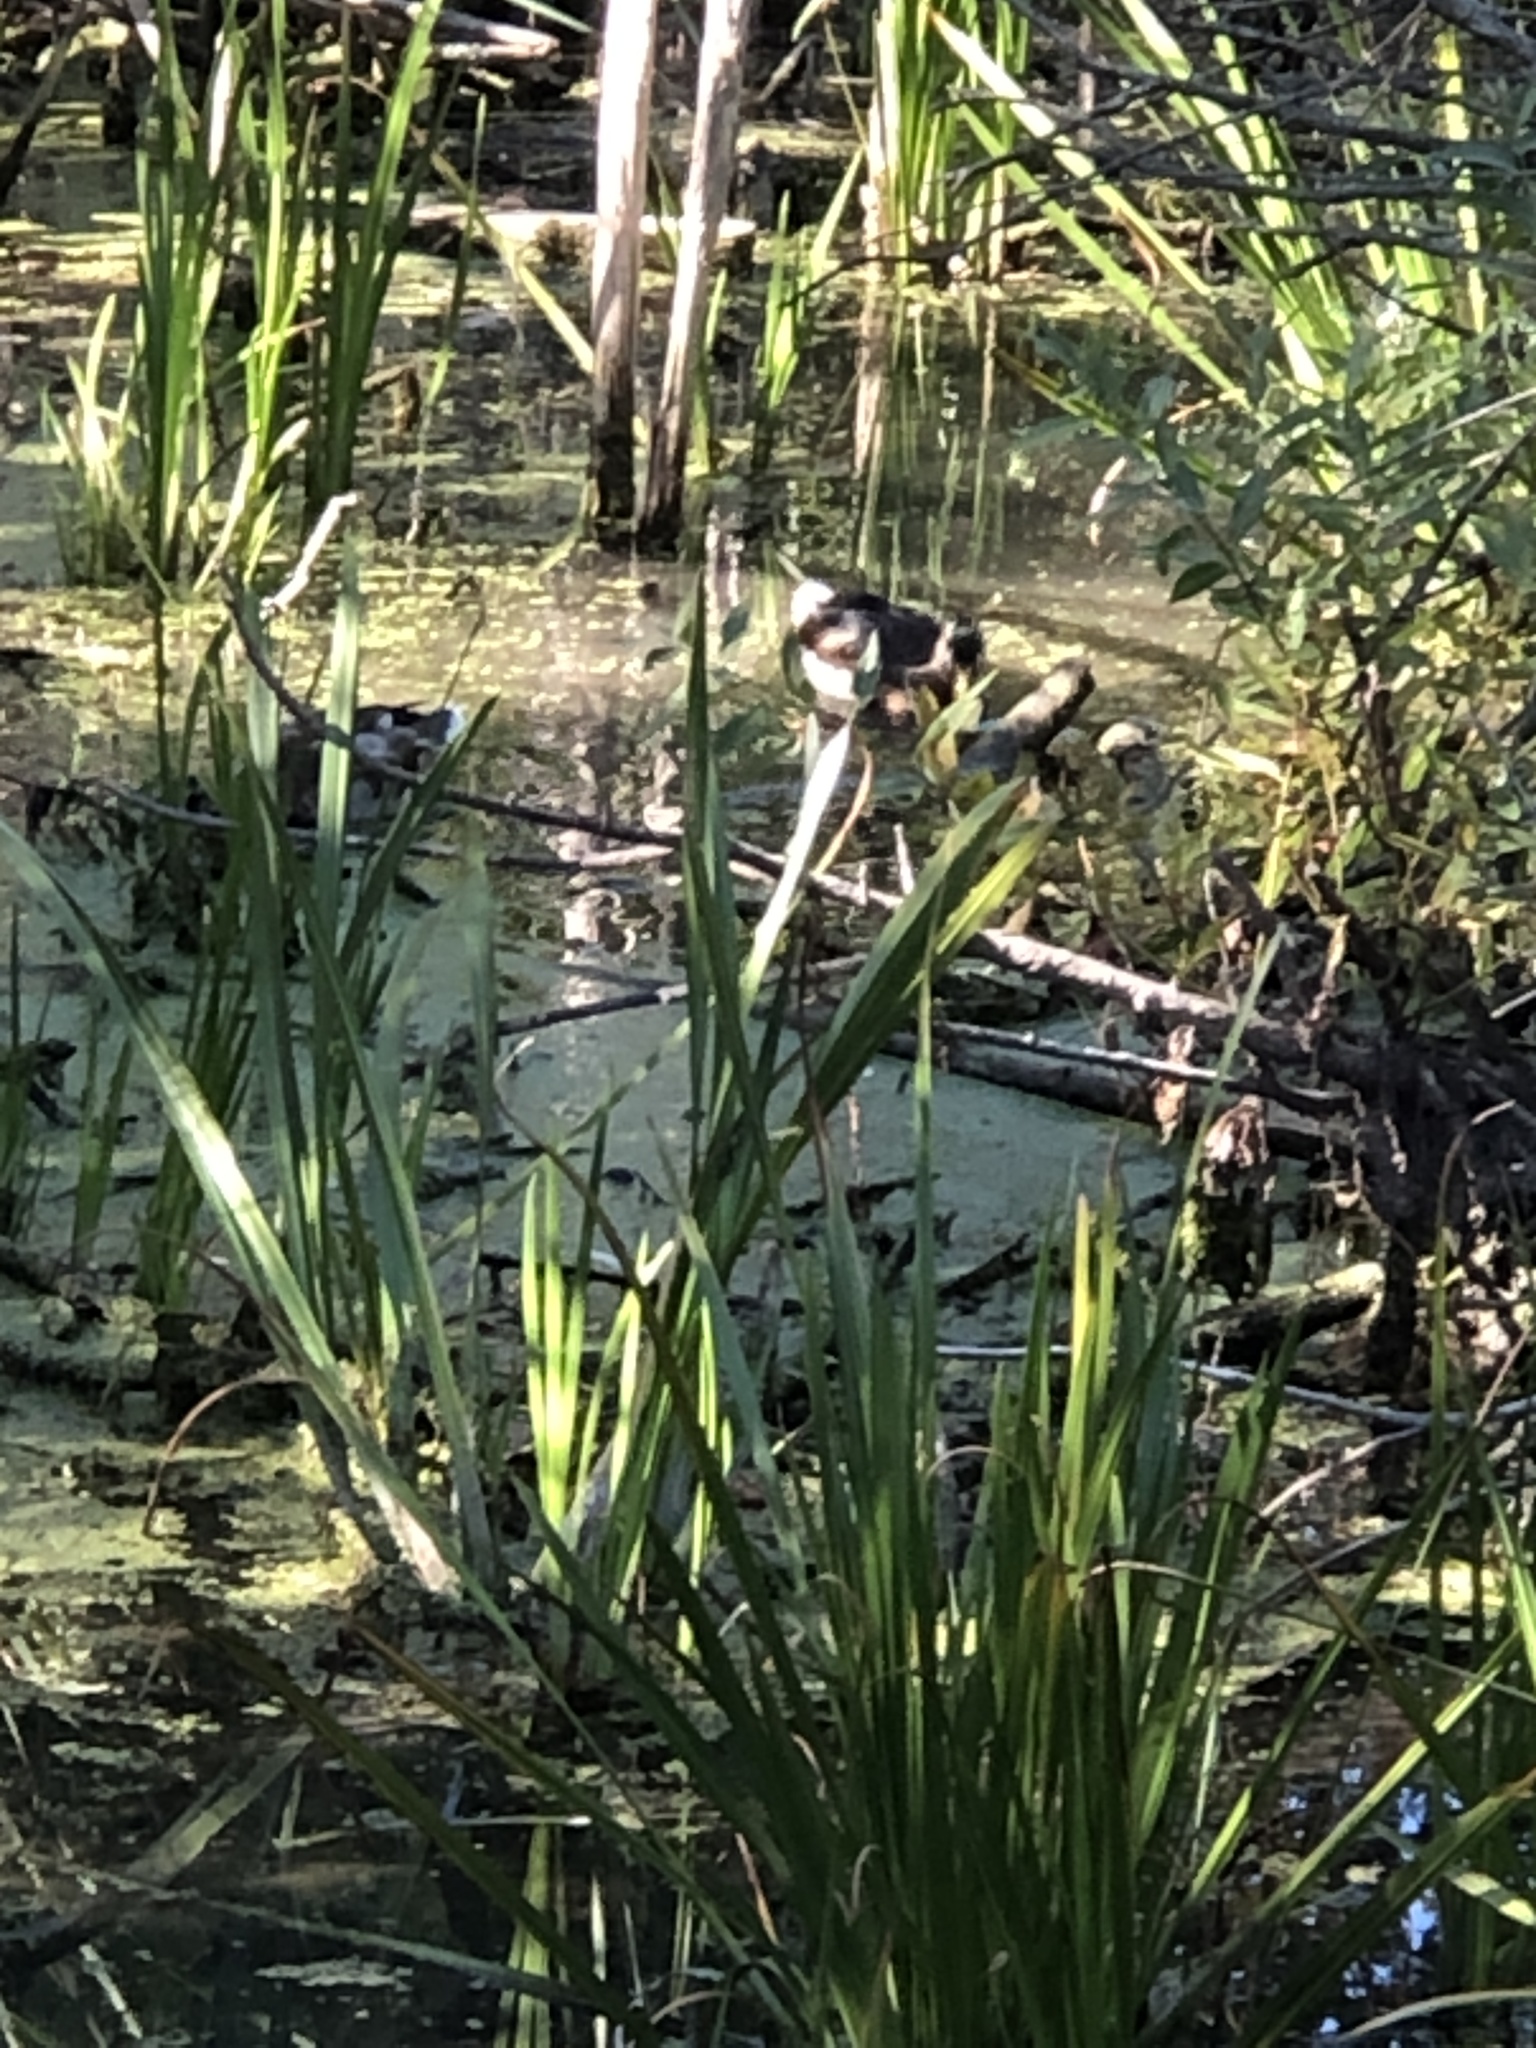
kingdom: Animalia
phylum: Chordata
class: Aves
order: Anseriformes
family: Anatidae
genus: Anas
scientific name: Anas platyrhynchos
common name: Mallard
